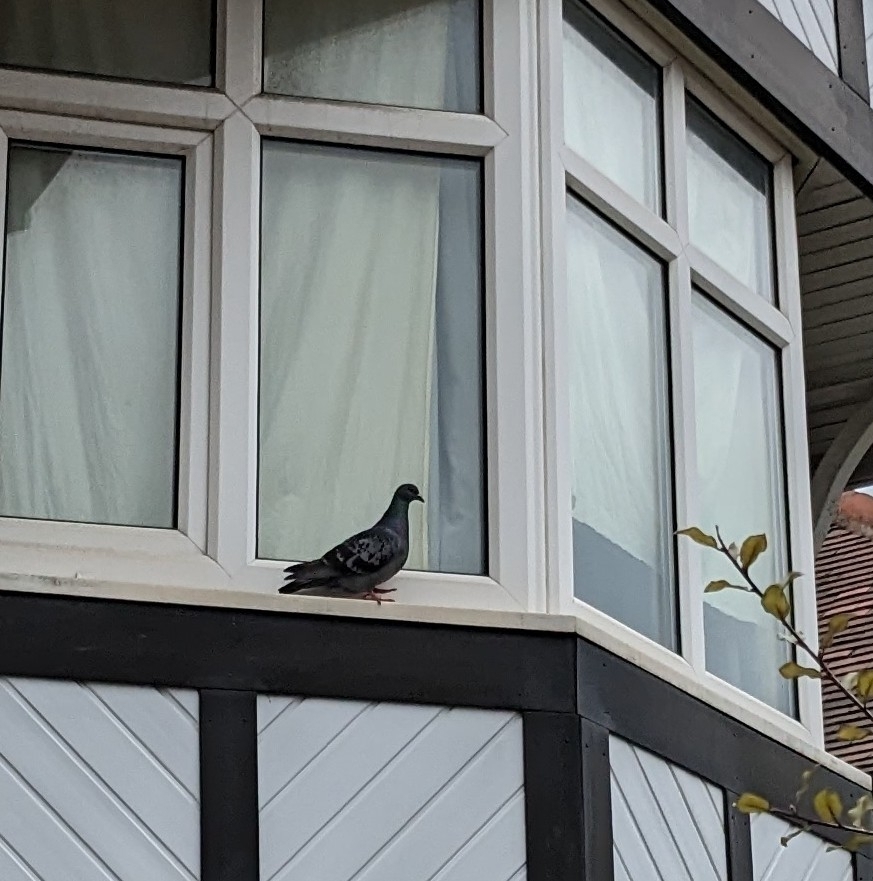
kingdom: Animalia
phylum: Chordata
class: Aves
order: Columbiformes
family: Columbidae
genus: Columba
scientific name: Columba livia
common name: Rock pigeon
